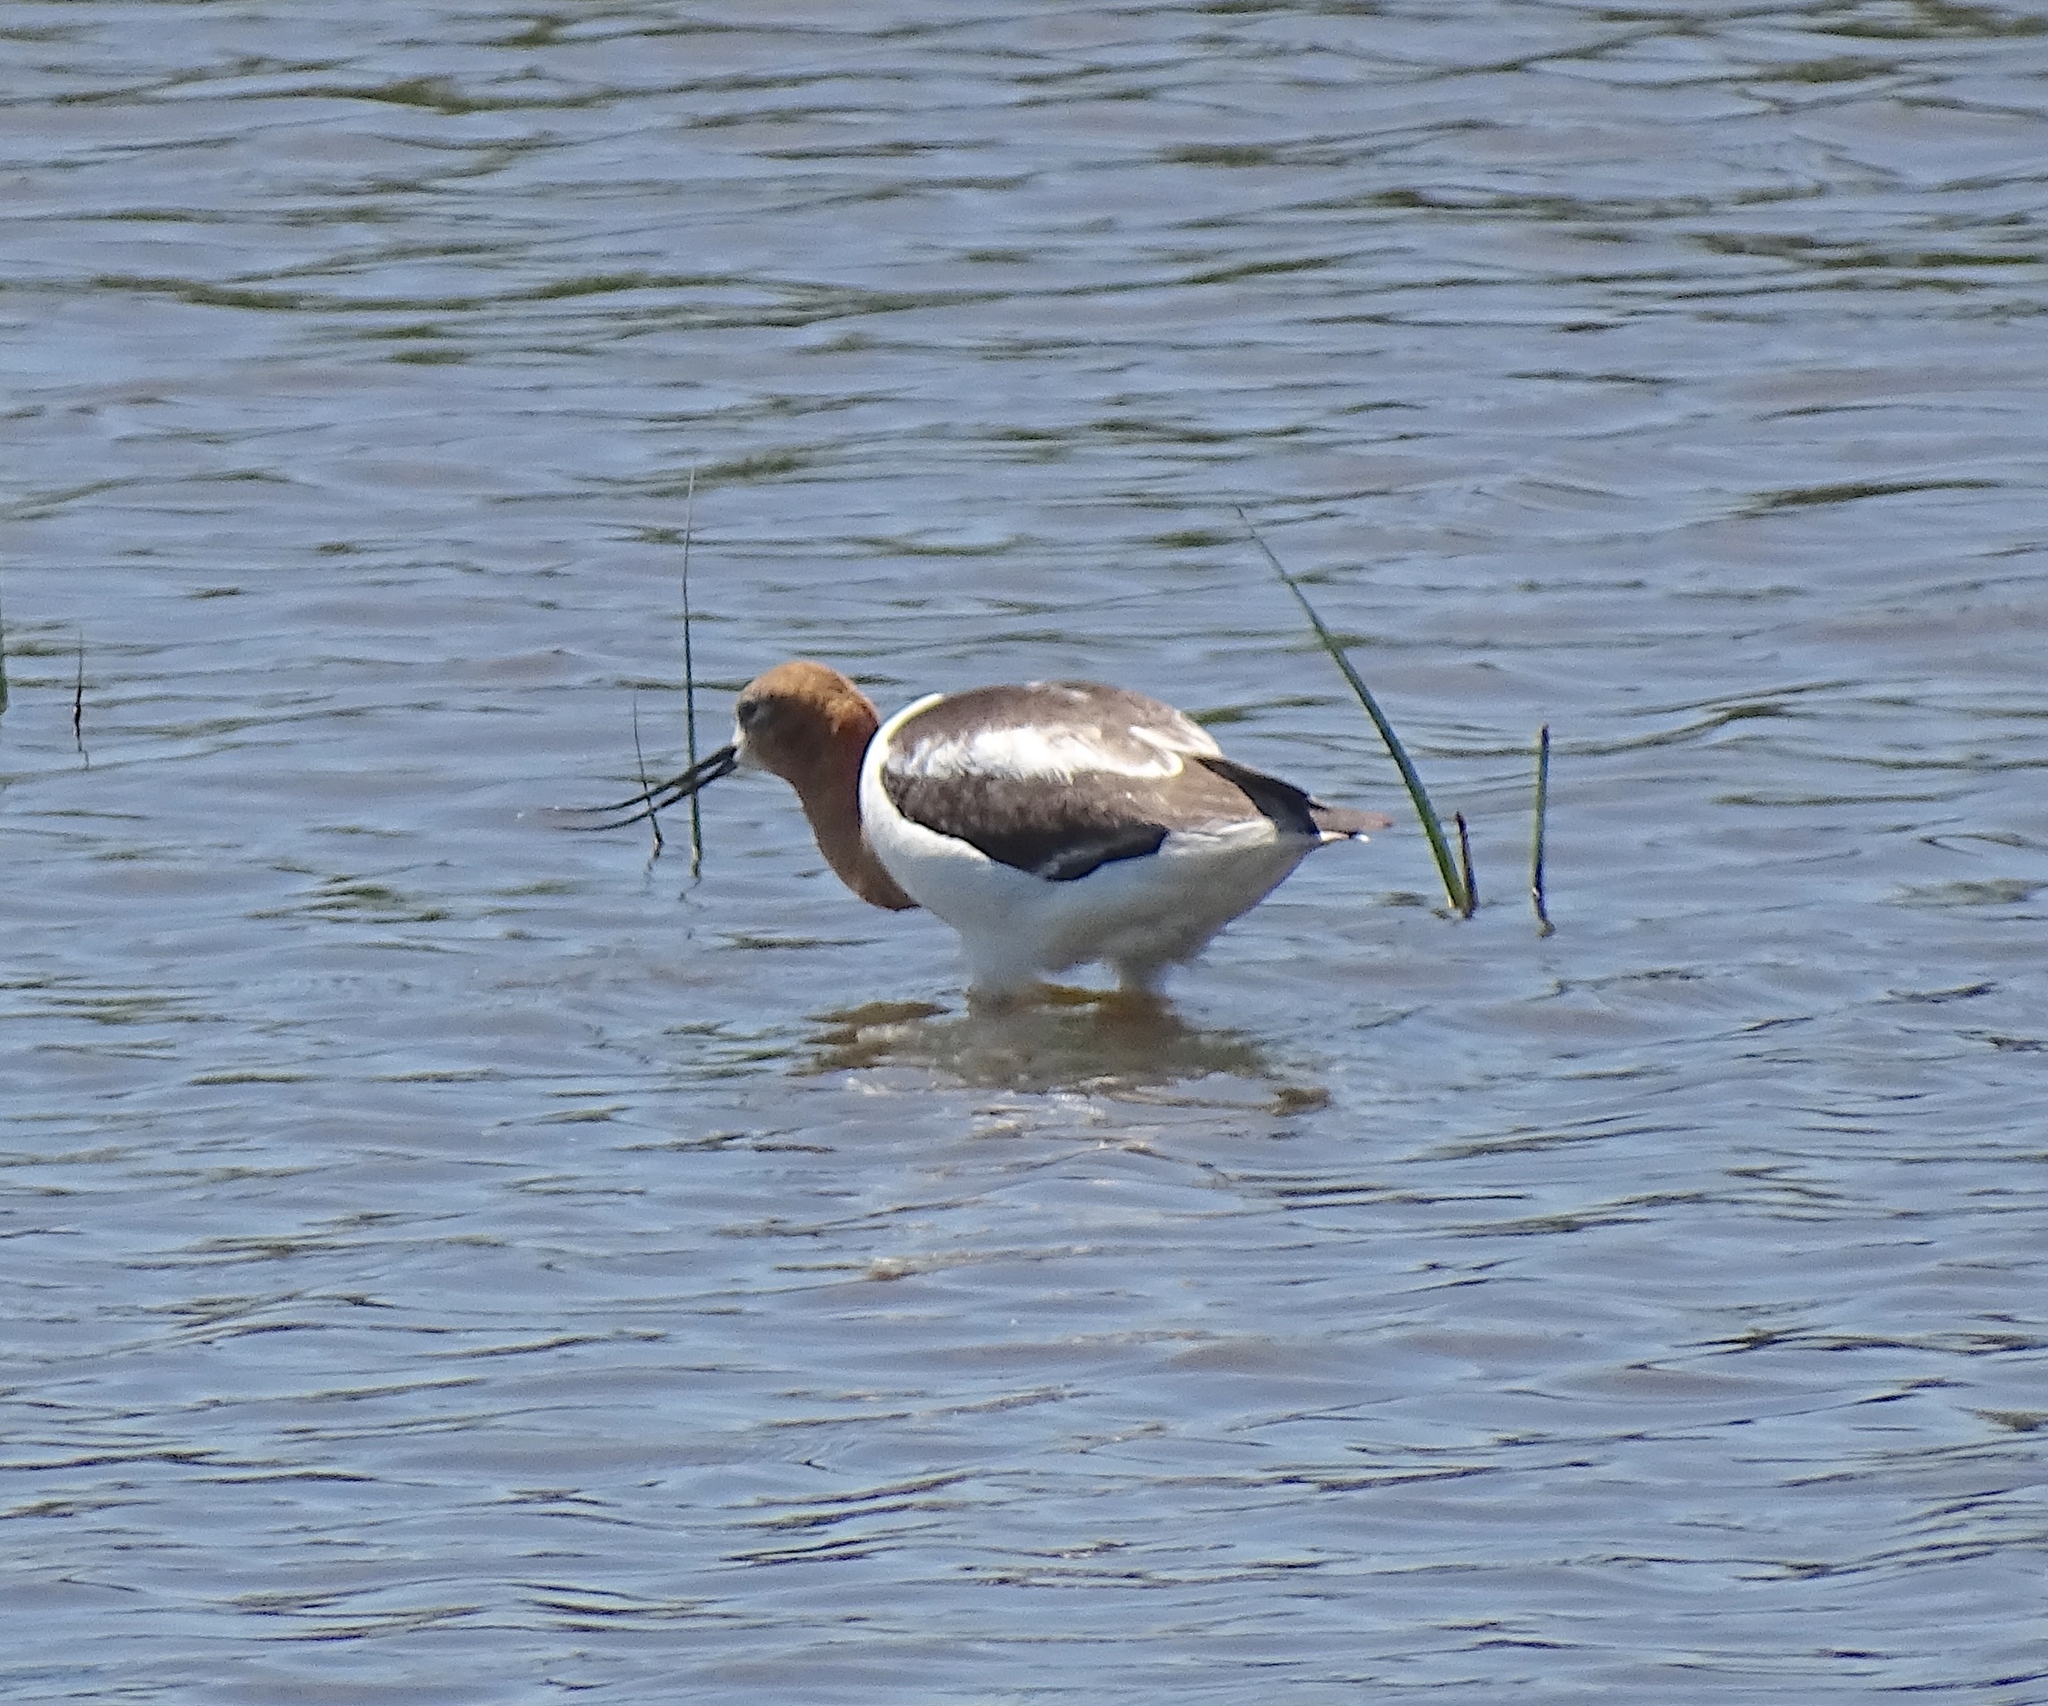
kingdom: Animalia
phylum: Chordata
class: Aves
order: Charadriiformes
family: Recurvirostridae
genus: Recurvirostra
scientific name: Recurvirostra americana
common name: American avocet
